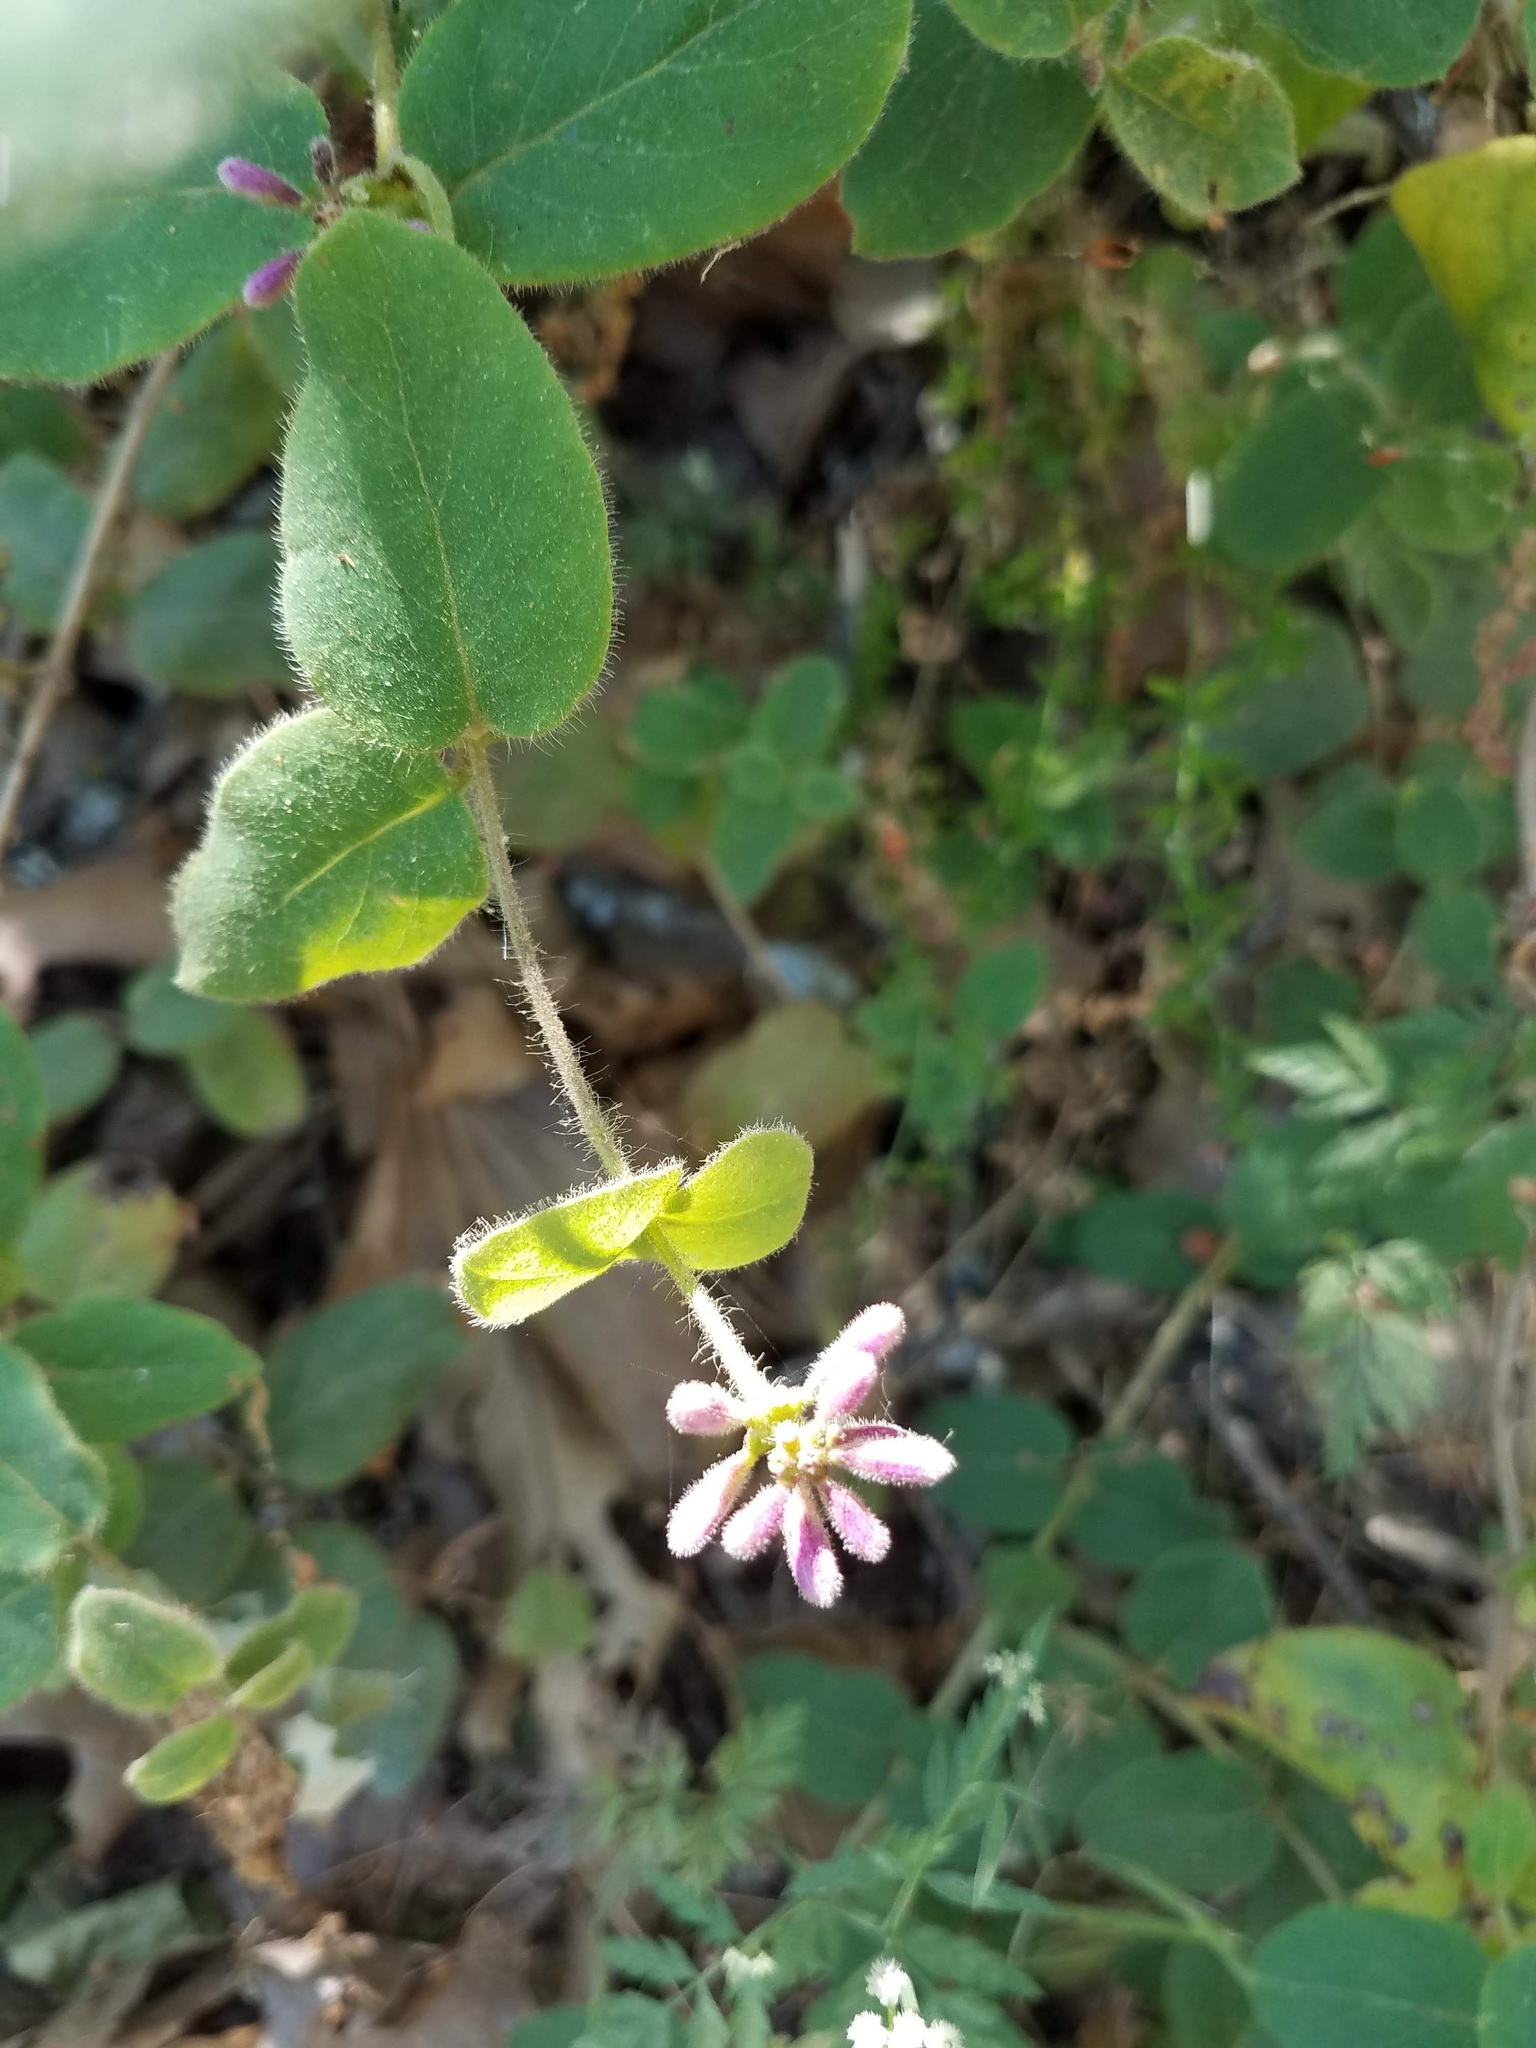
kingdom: Plantae
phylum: Tracheophyta
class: Magnoliopsida
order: Dipsacales
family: Caprifoliaceae
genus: Lonicera
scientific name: Lonicera hispidula
